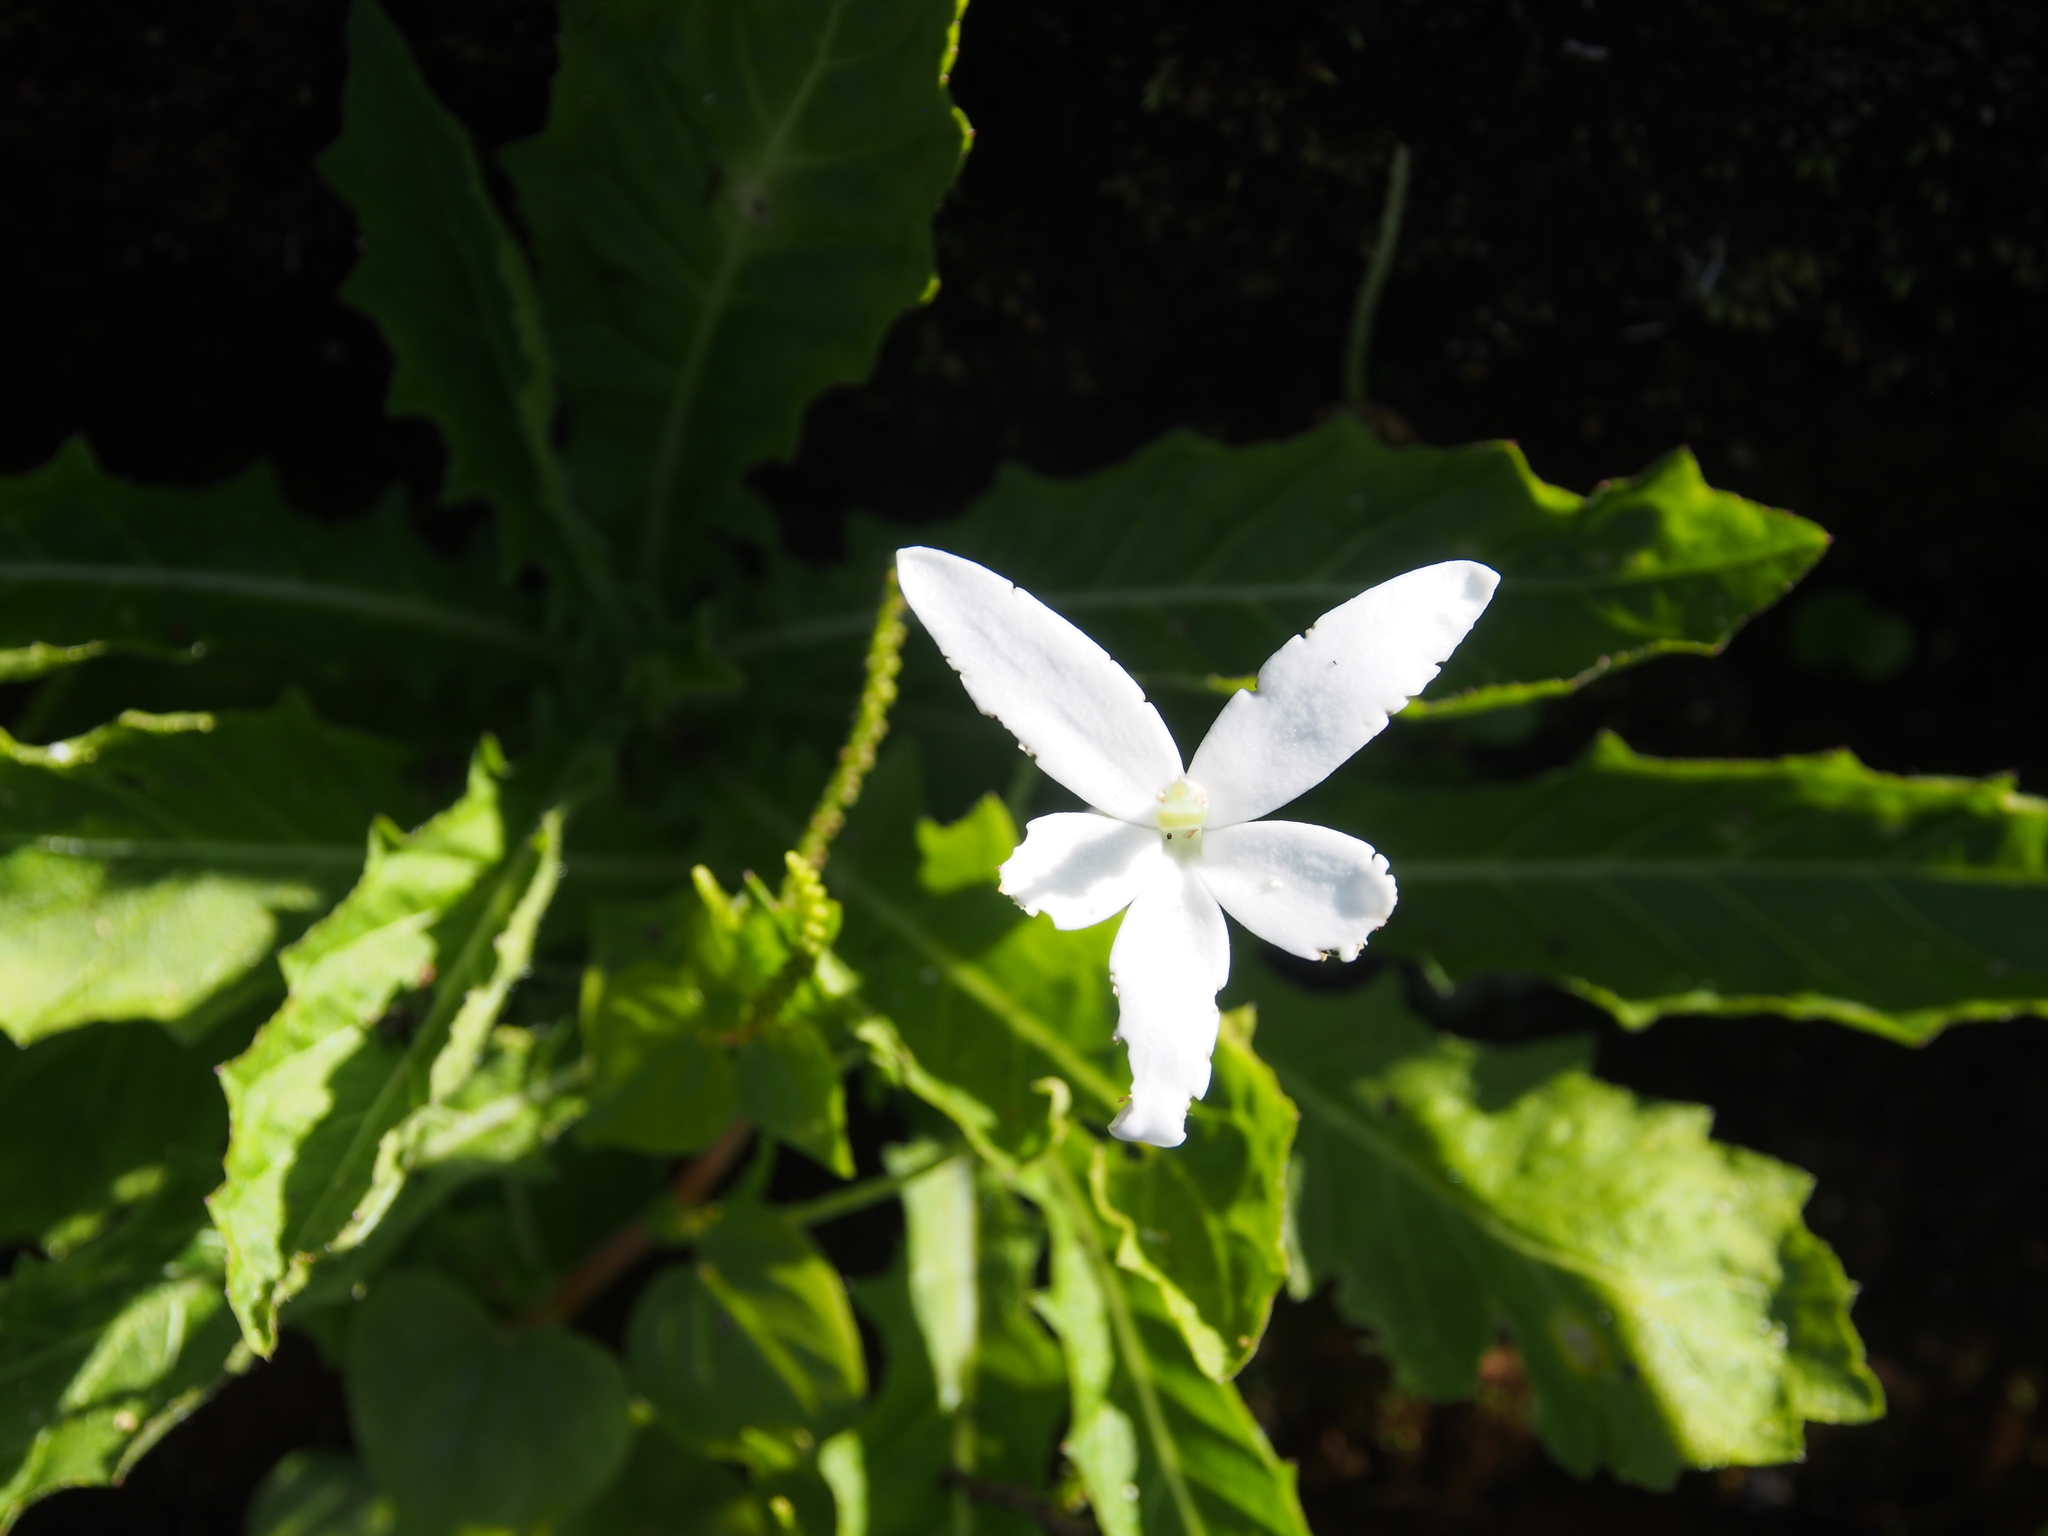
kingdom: Plantae
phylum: Tracheophyta
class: Magnoliopsida
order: Asterales
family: Campanulaceae
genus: Hippobroma
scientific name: Hippobroma longiflora
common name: Madamfate
